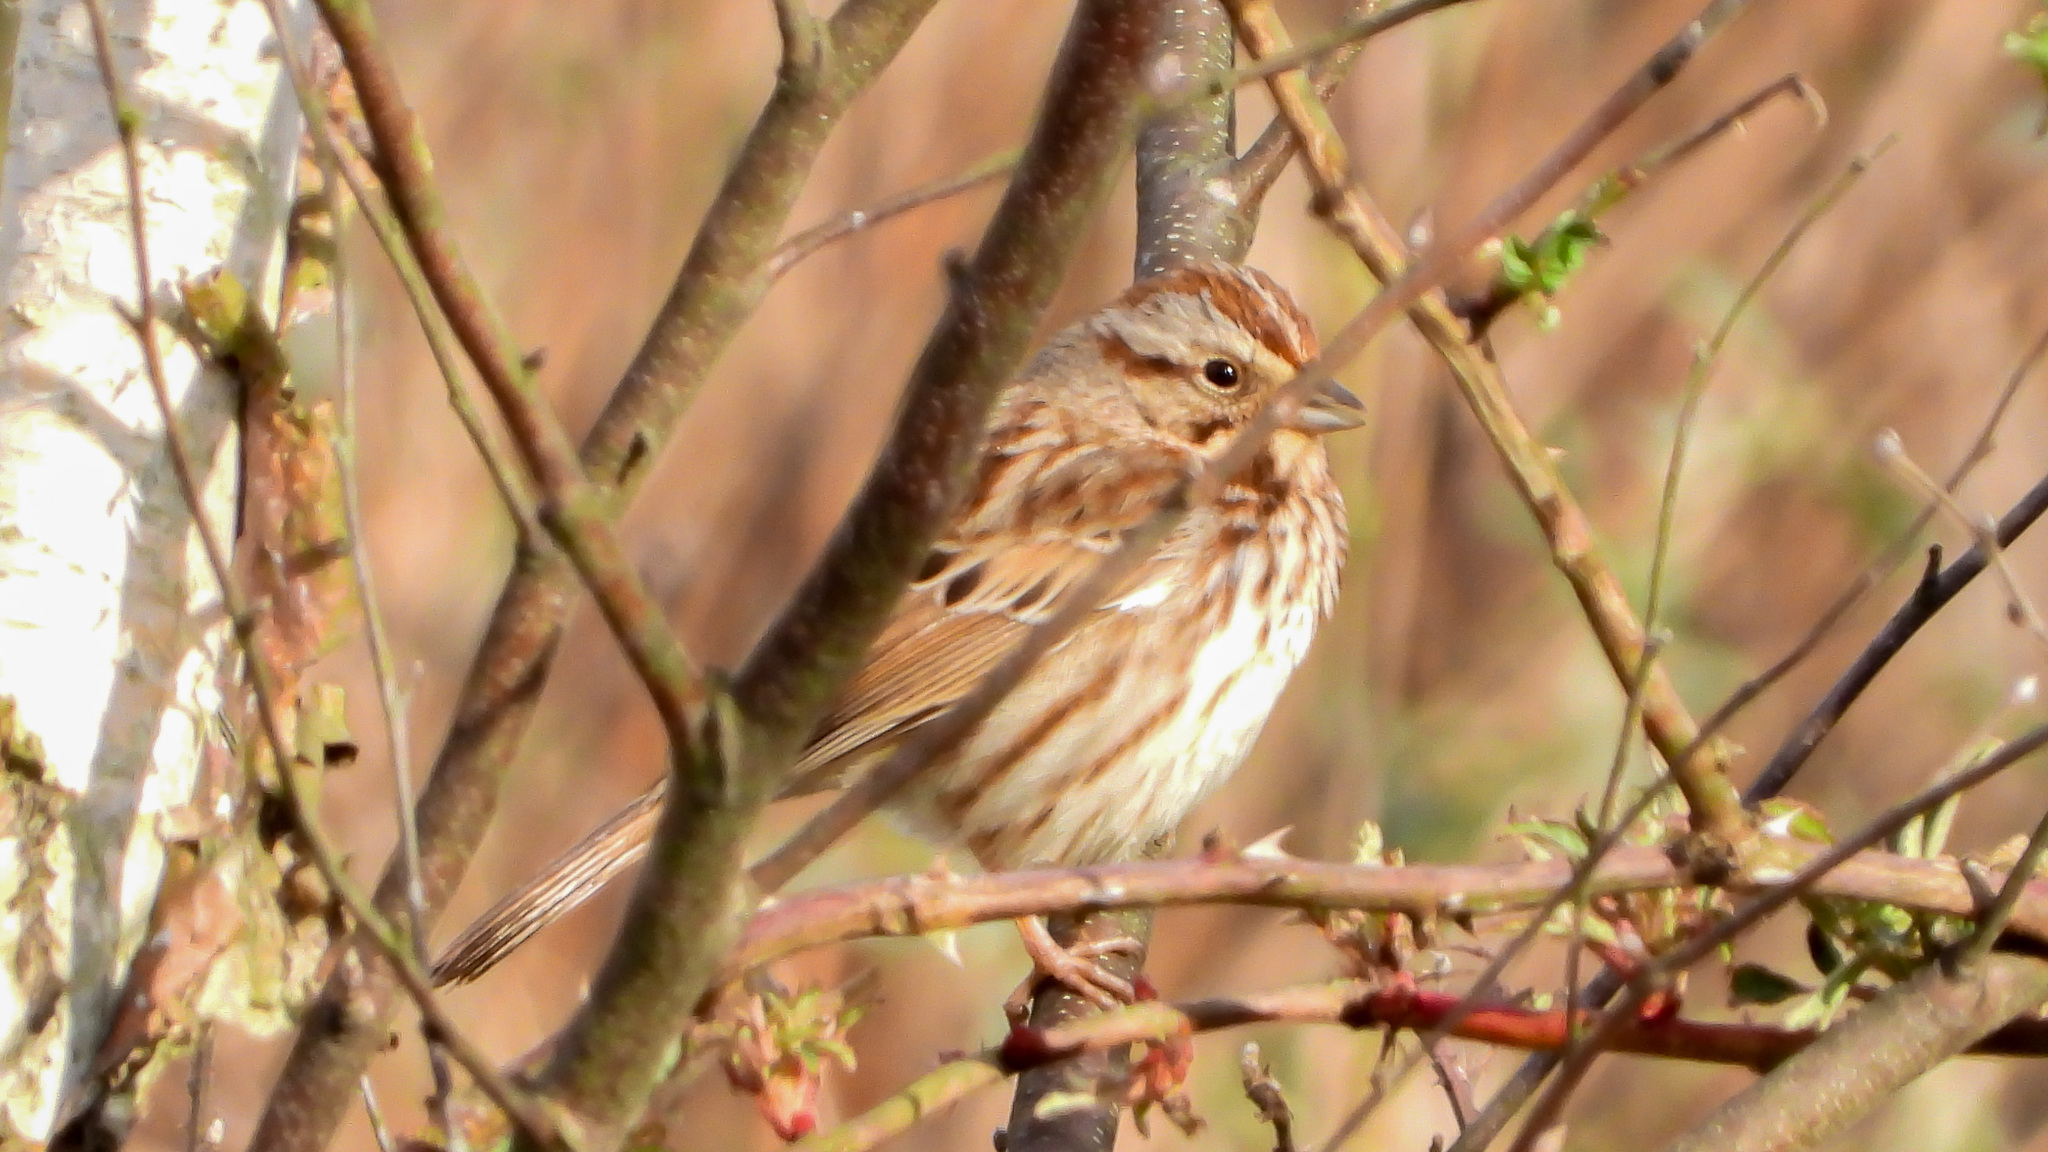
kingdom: Animalia
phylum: Chordata
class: Aves
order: Passeriformes
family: Passerellidae
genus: Melospiza
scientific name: Melospiza melodia
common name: Song sparrow
